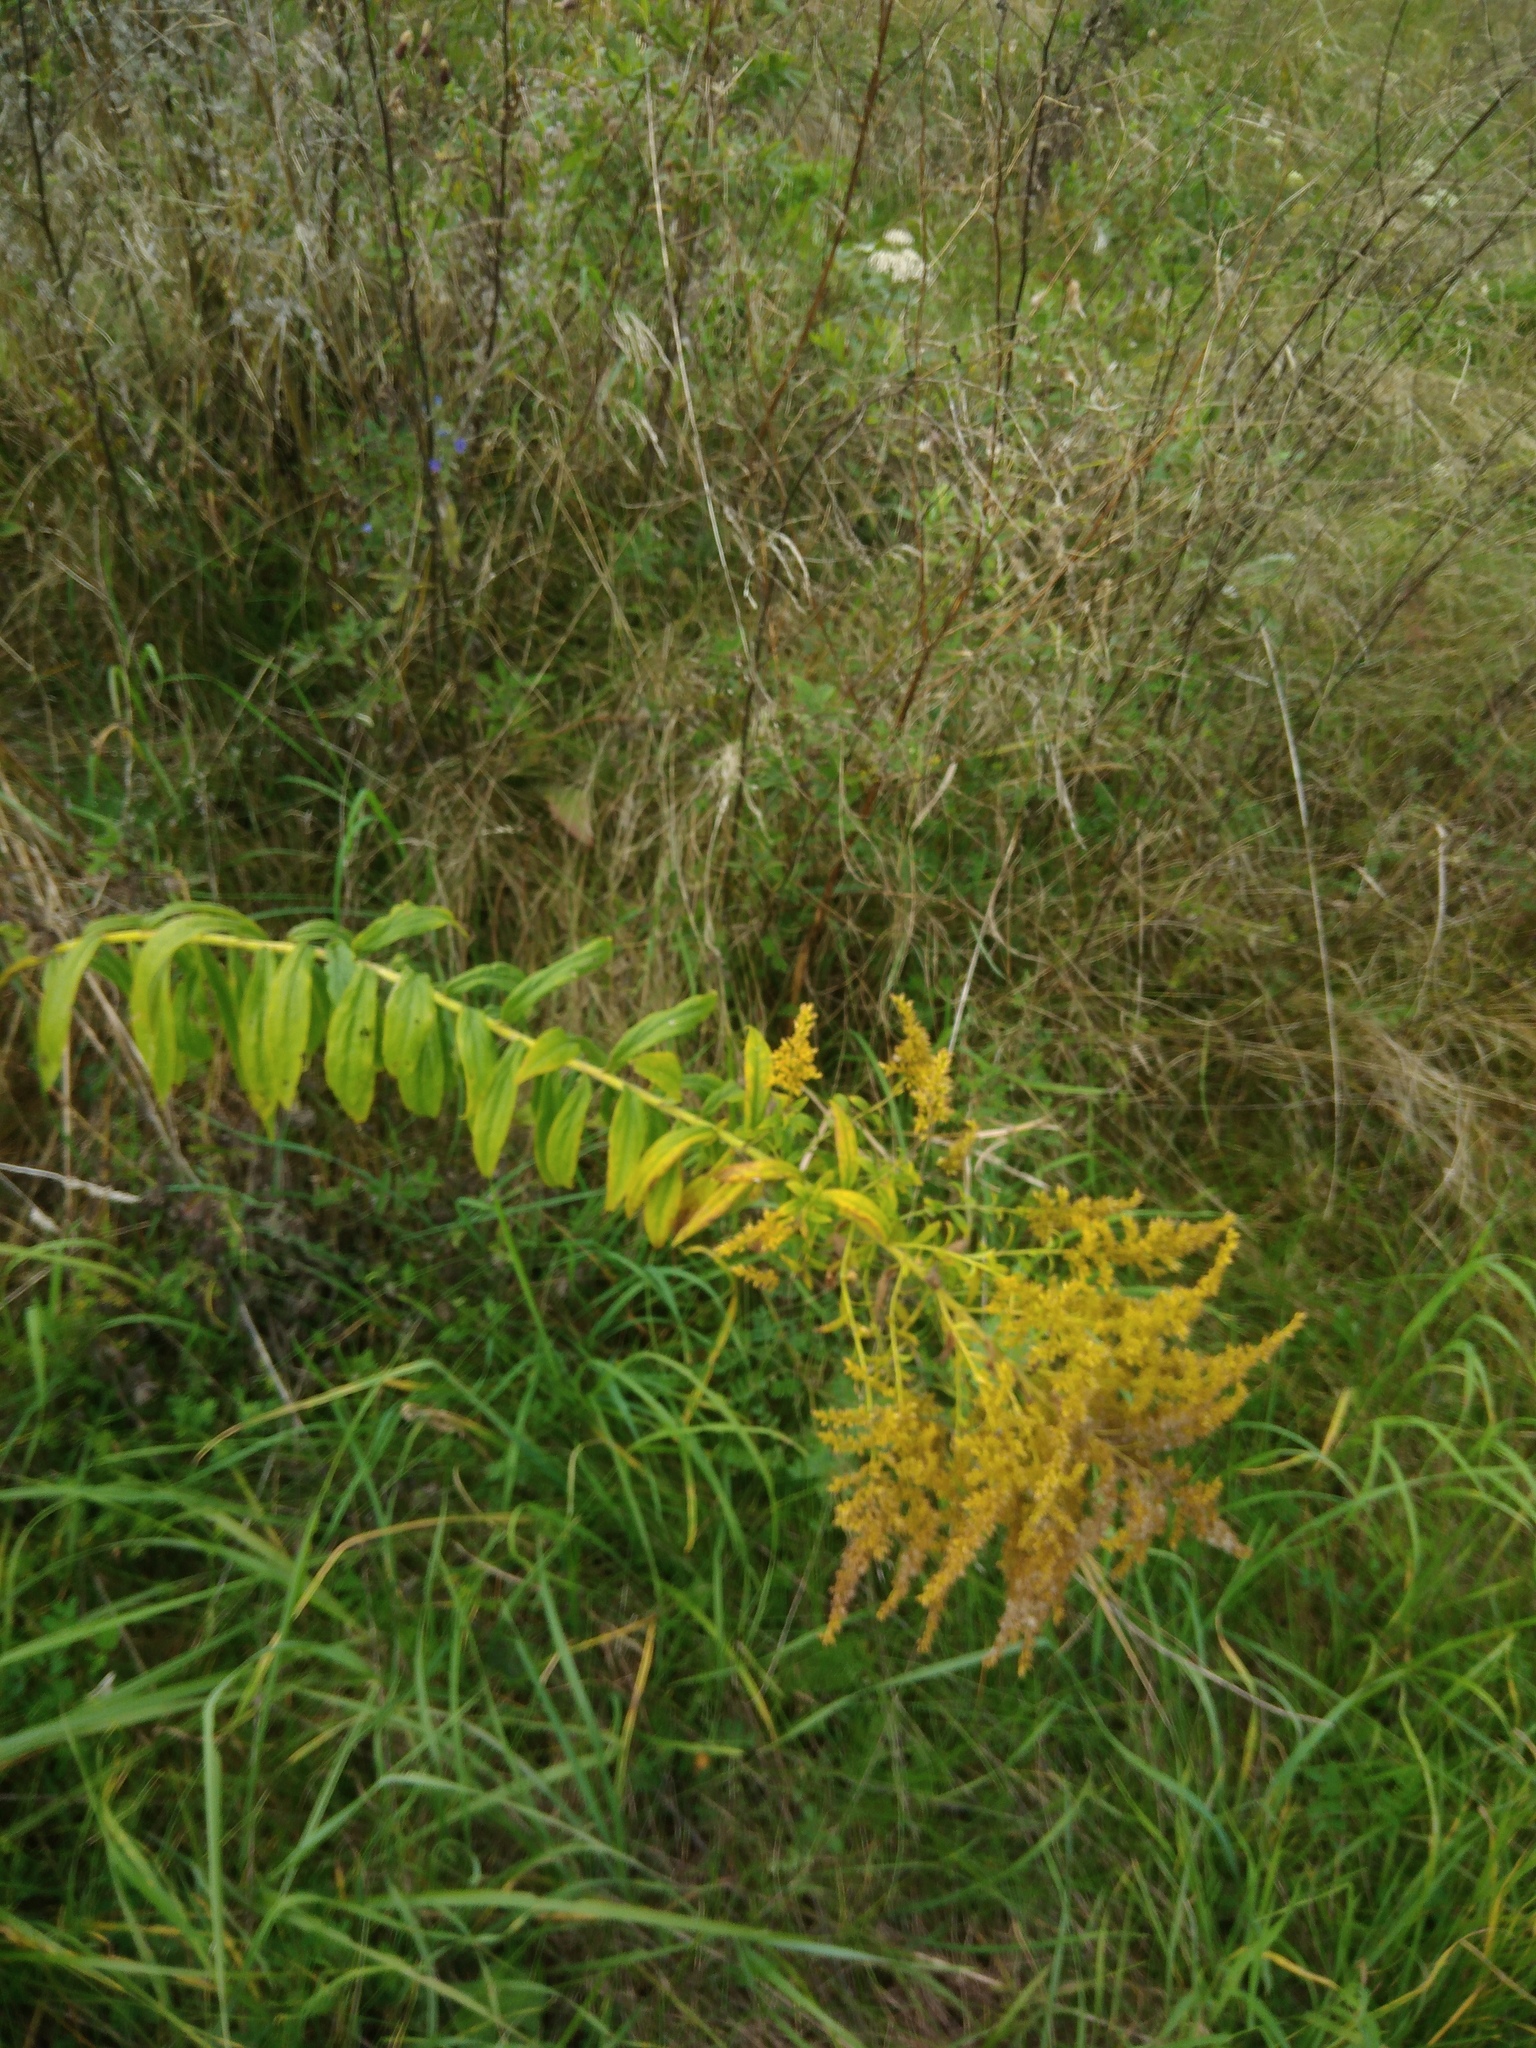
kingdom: Plantae
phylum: Tracheophyta
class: Magnoliopsida
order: Asterales
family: Asteraceae
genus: Solidago
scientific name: Solidago canadensis
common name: Canada goldenrod
